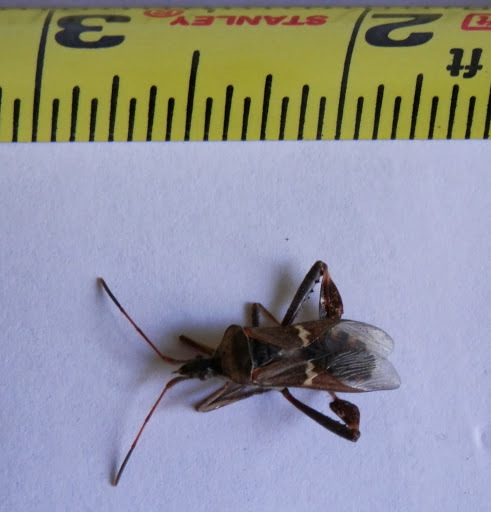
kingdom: Animalia
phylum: Arthropoda
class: Insecta
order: Hemiptera
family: Coreidae
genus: Leptoglossus
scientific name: Leptoglossus clypealis
